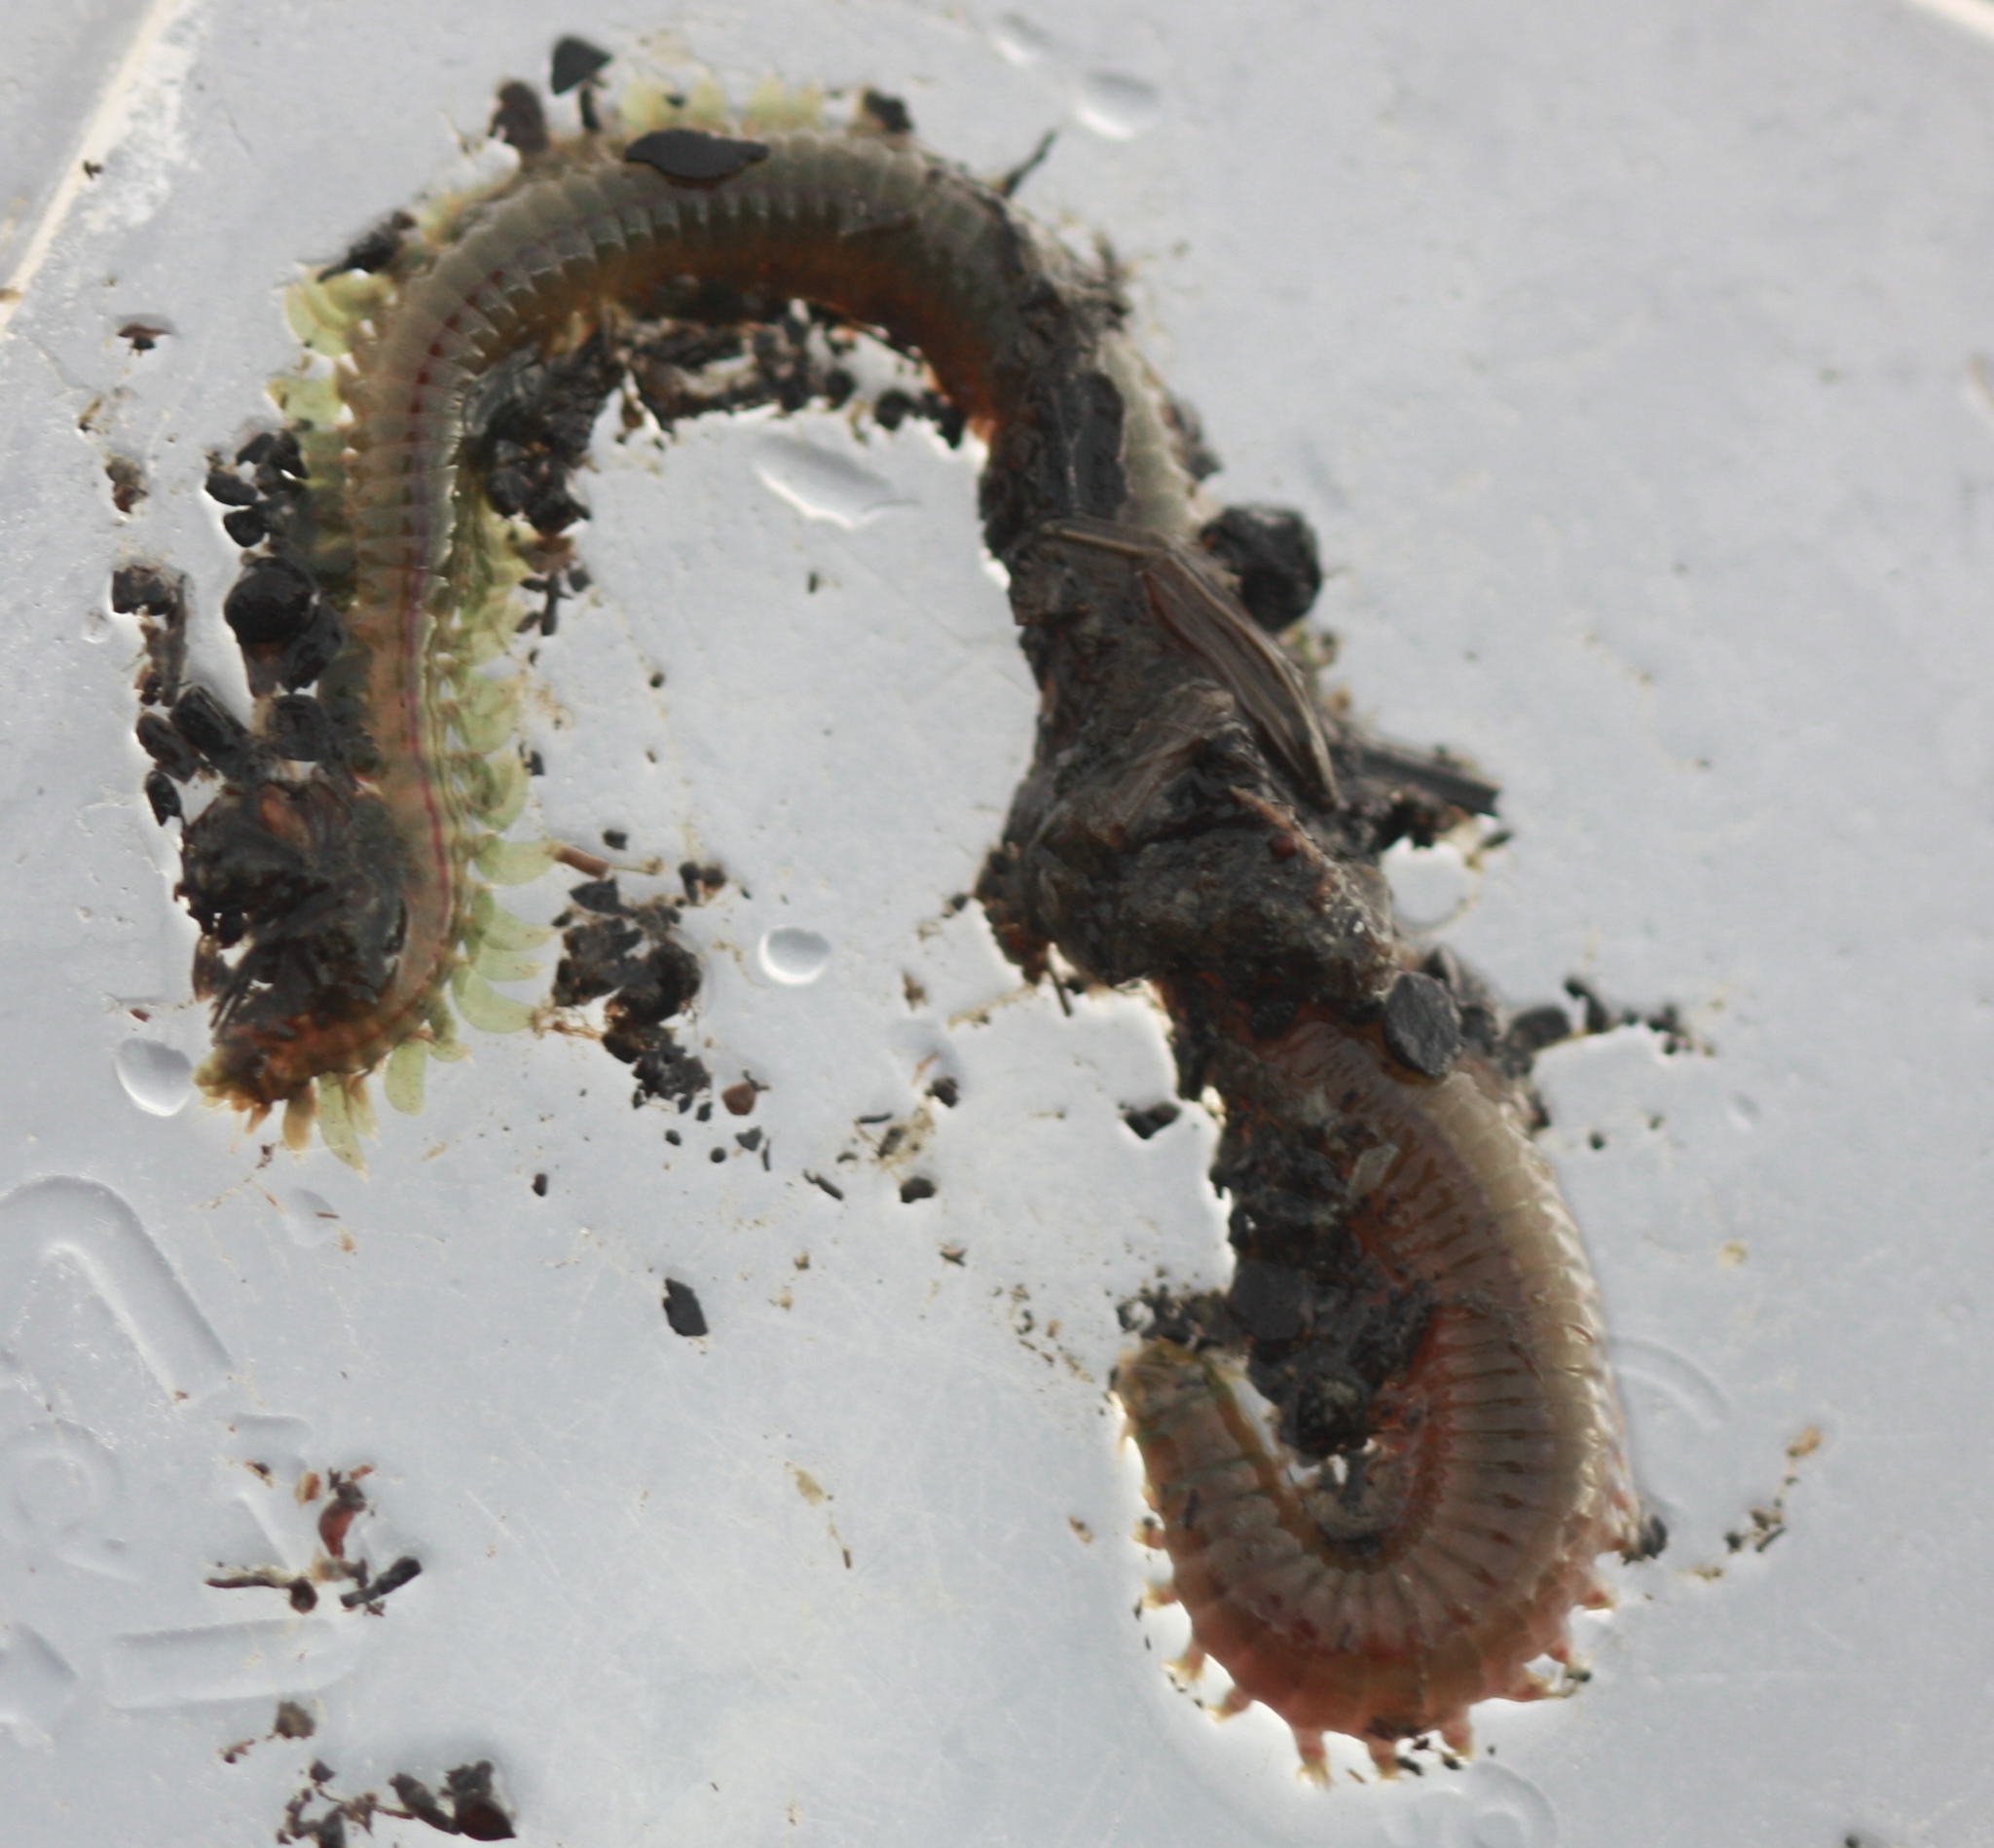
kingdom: Animalia
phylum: Annelida
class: Polychaeta
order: Phyllodocida
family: Nereididae
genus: Alitta
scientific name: Alitta succinea
